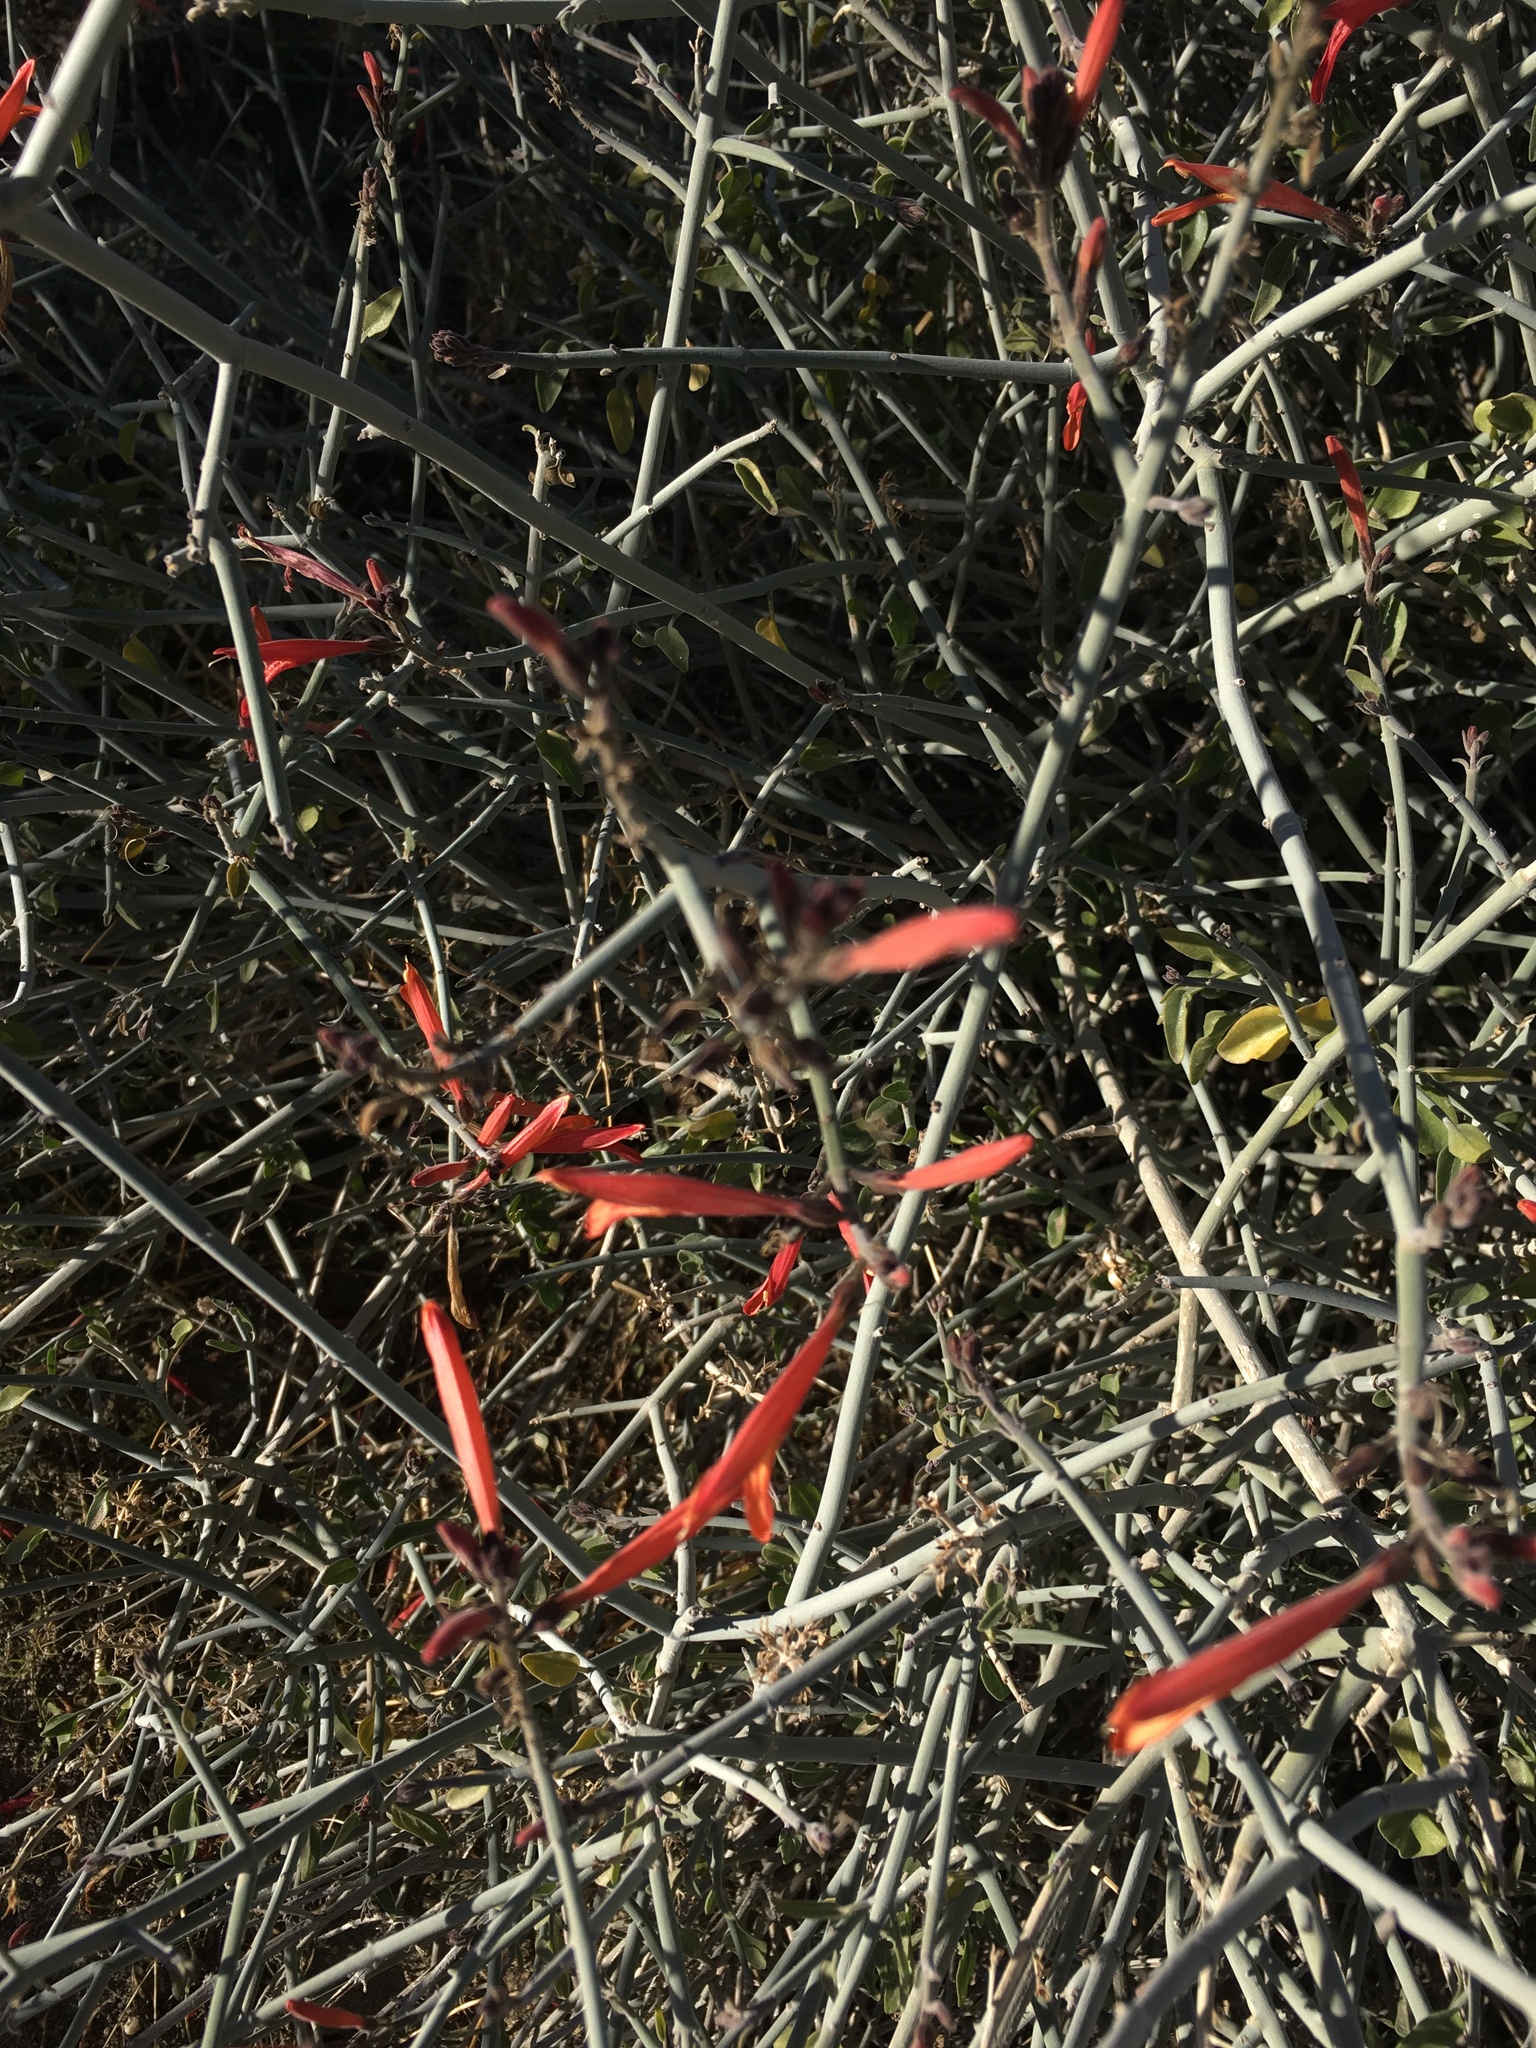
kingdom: Plantae
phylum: Tracheophyta
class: Magnoliopsida
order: Lamiales
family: Acanthaceae
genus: Justicia
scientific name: Justicia californica
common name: Chuparosa-honeysuckle
